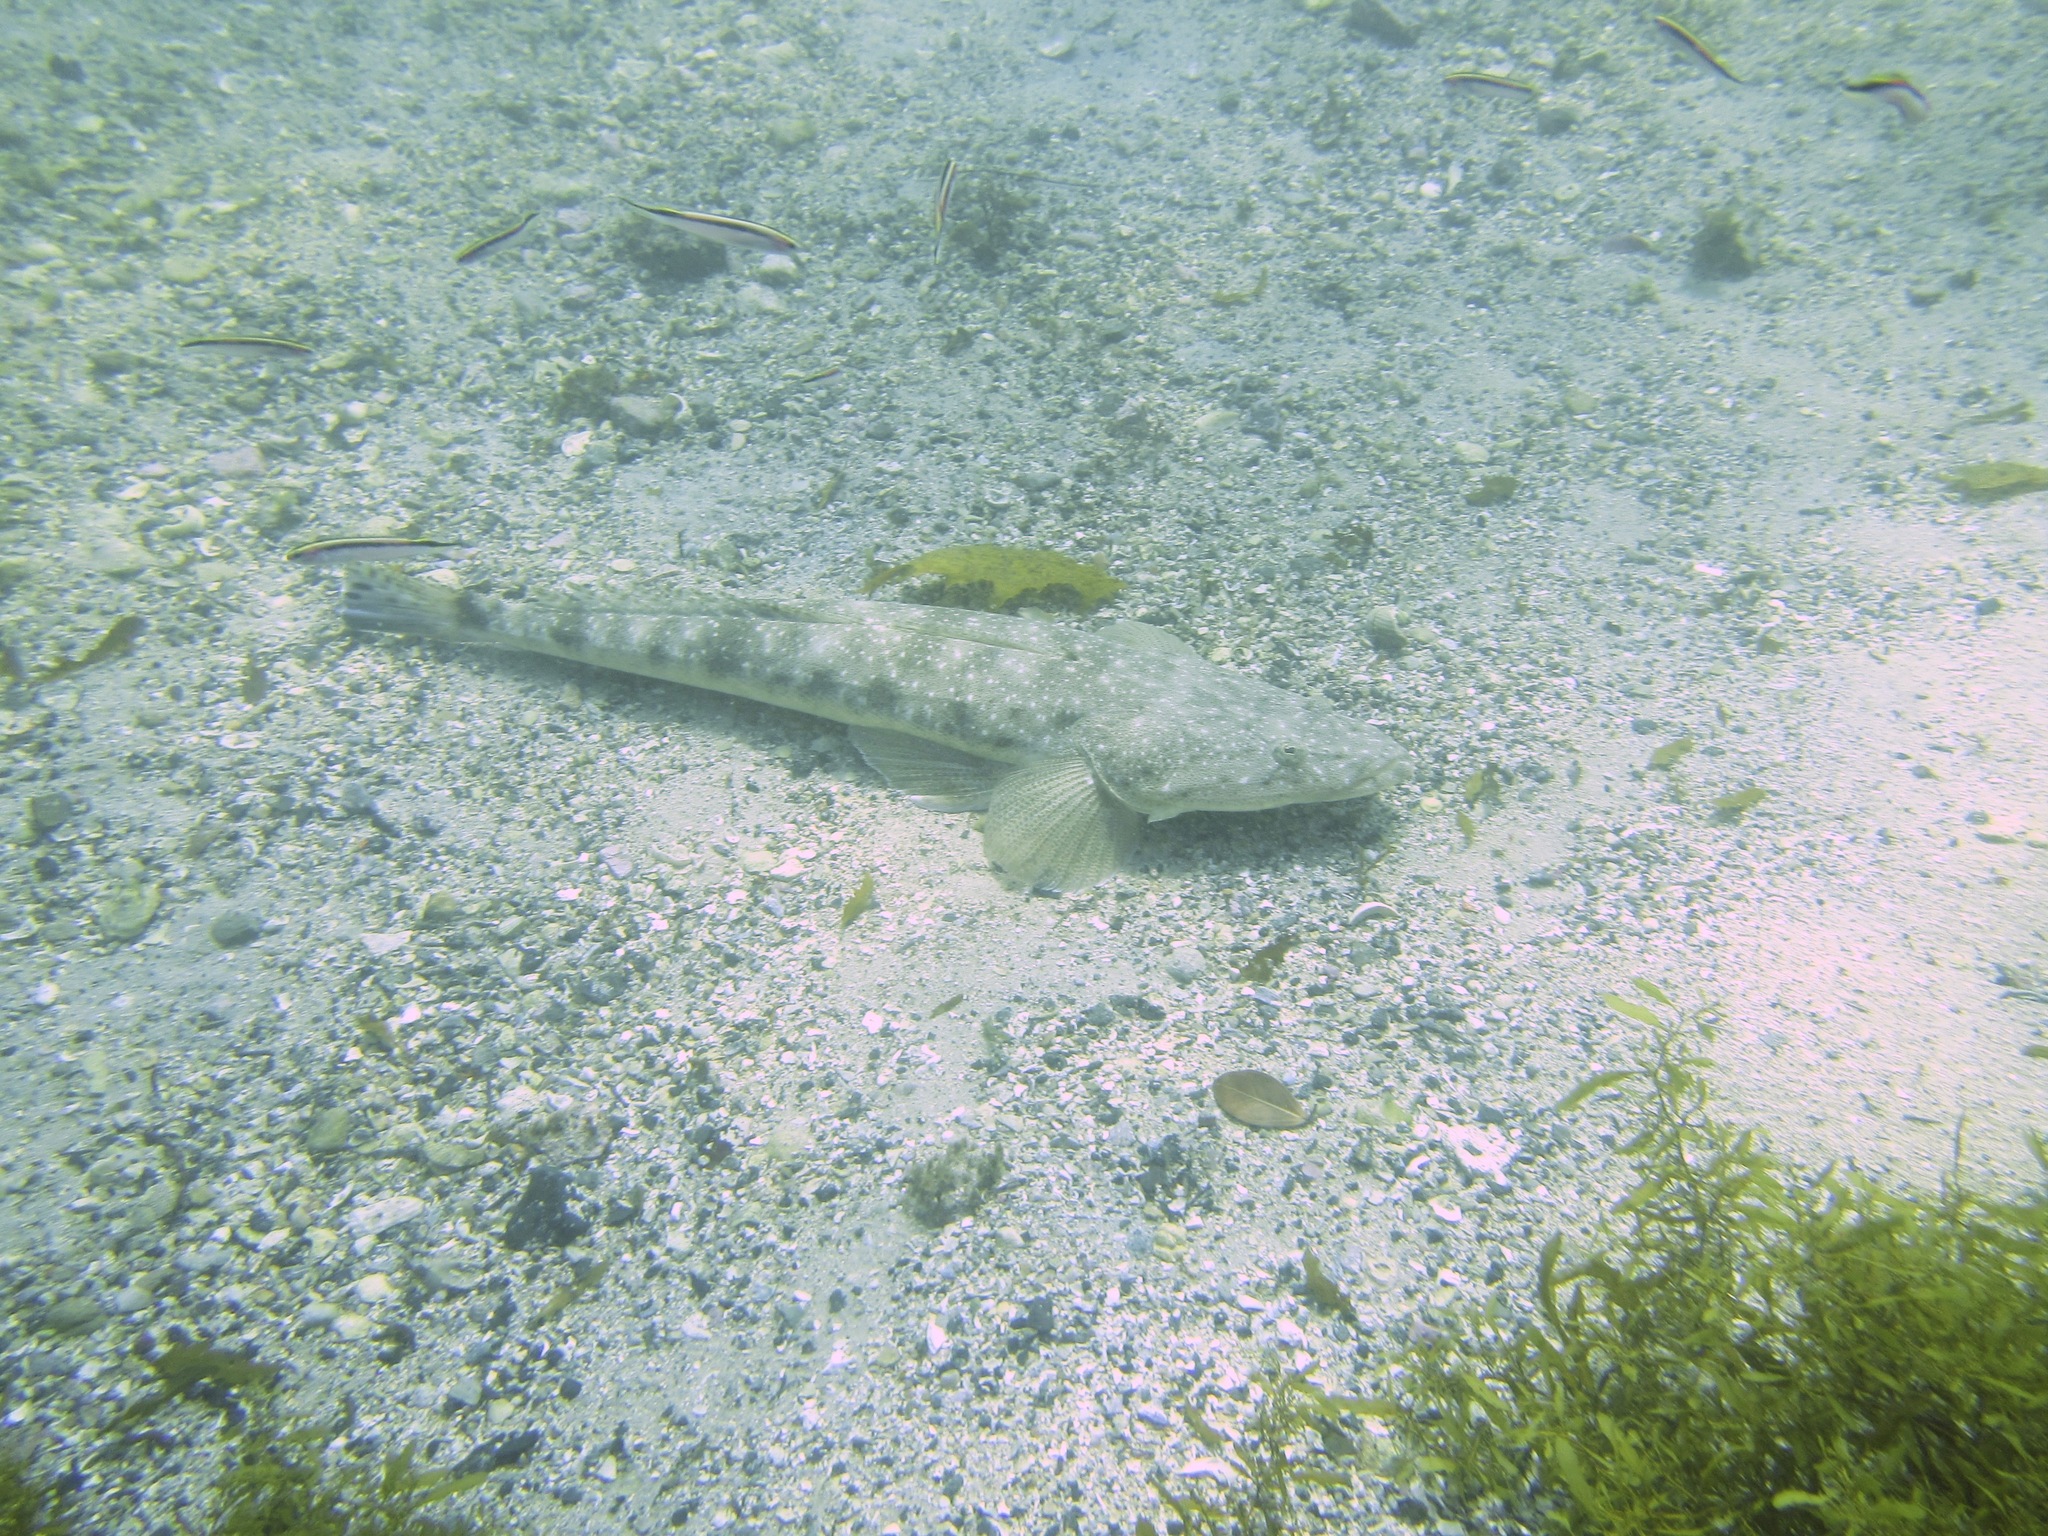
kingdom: Animalia
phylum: Chordata
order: Scorpaeniformes
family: Platycephalidae
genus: Platycephalus
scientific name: Platycephalus fuscus
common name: Dusky flathead
